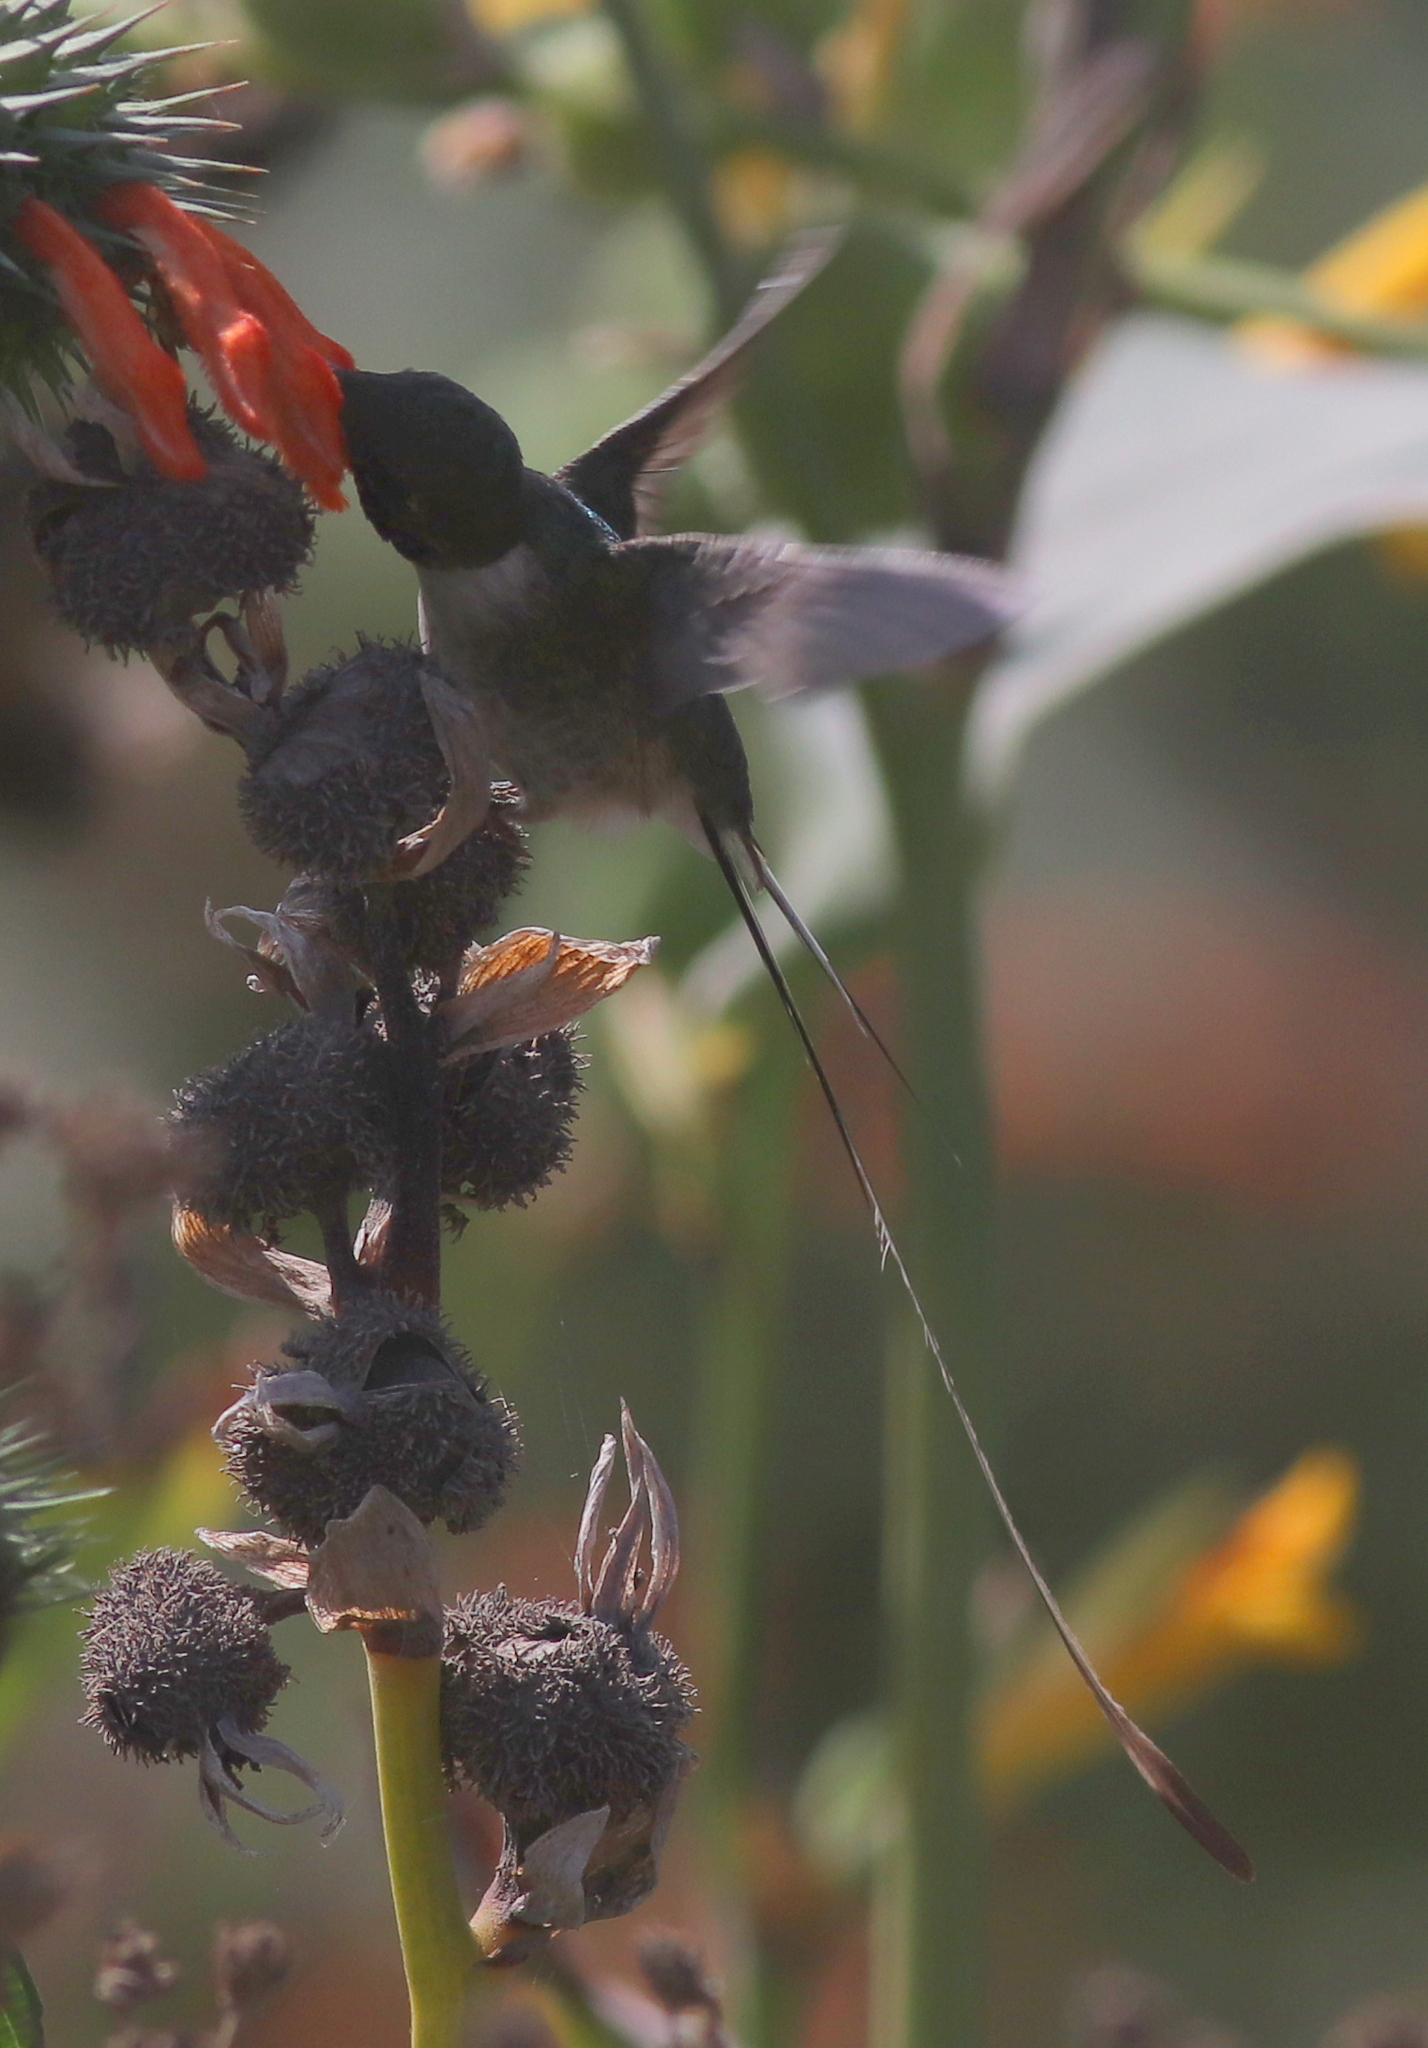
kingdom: Animalia
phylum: Chordata
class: Aves
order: Apodiformes
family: Trochilidae
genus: Thaumastura
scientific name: Thaumastura cora
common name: Peruvian sheartail
